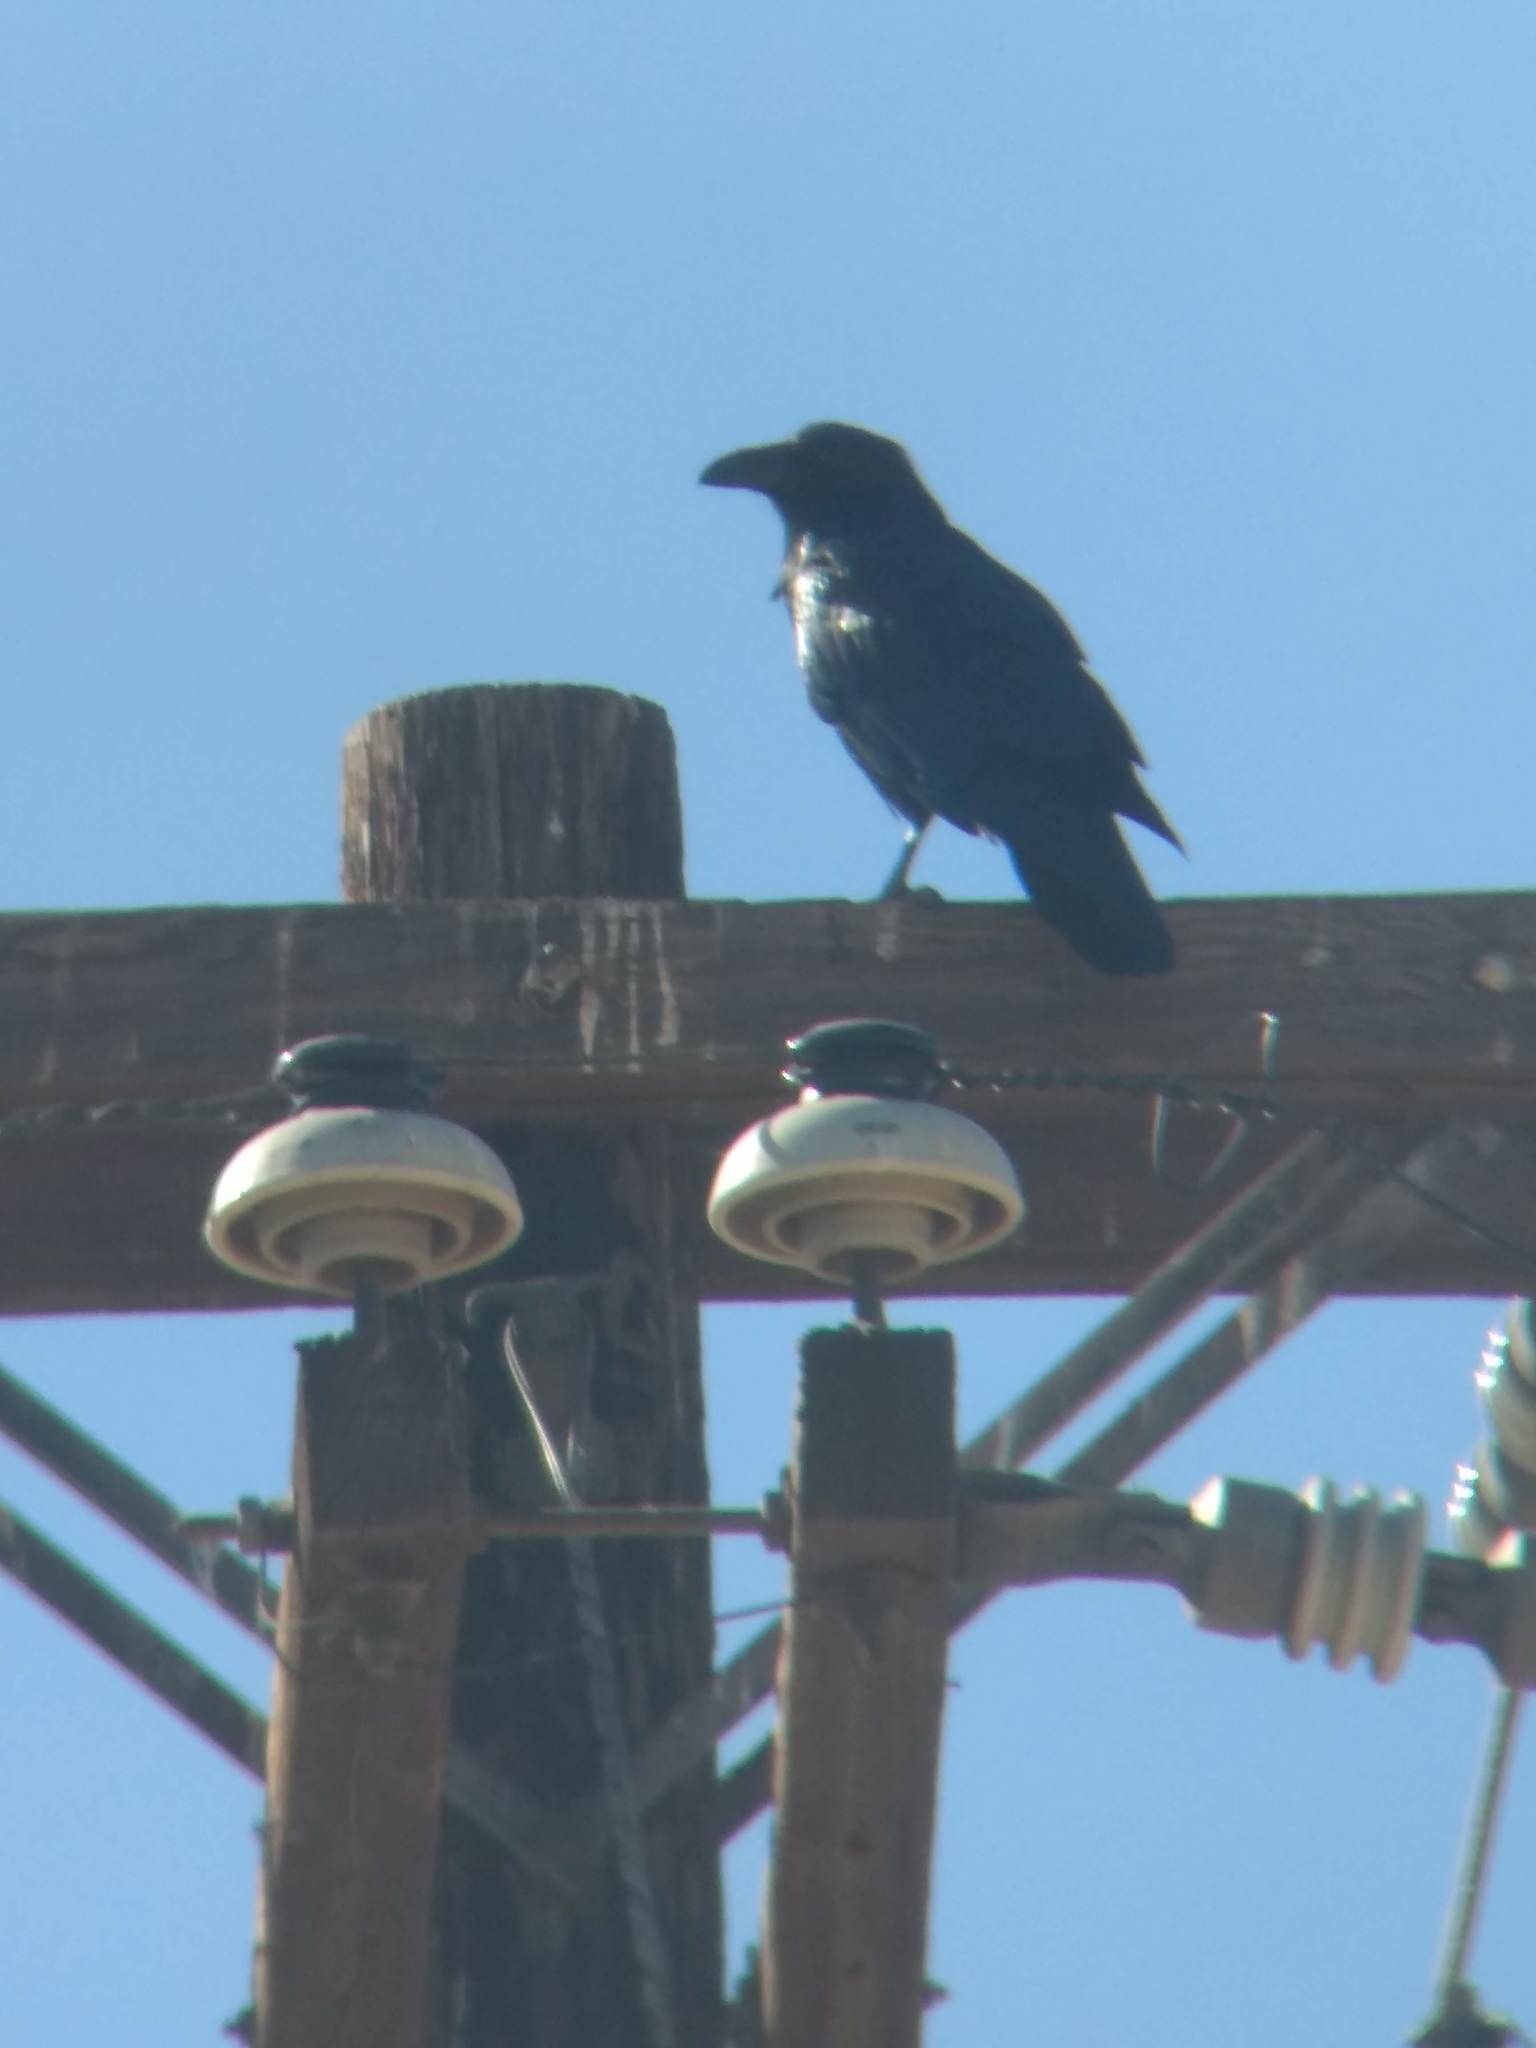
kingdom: Animalia
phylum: Chordata
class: Aves
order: Passeriformes
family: Corvidae
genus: Corvus
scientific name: Corvus corax
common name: Common raven
